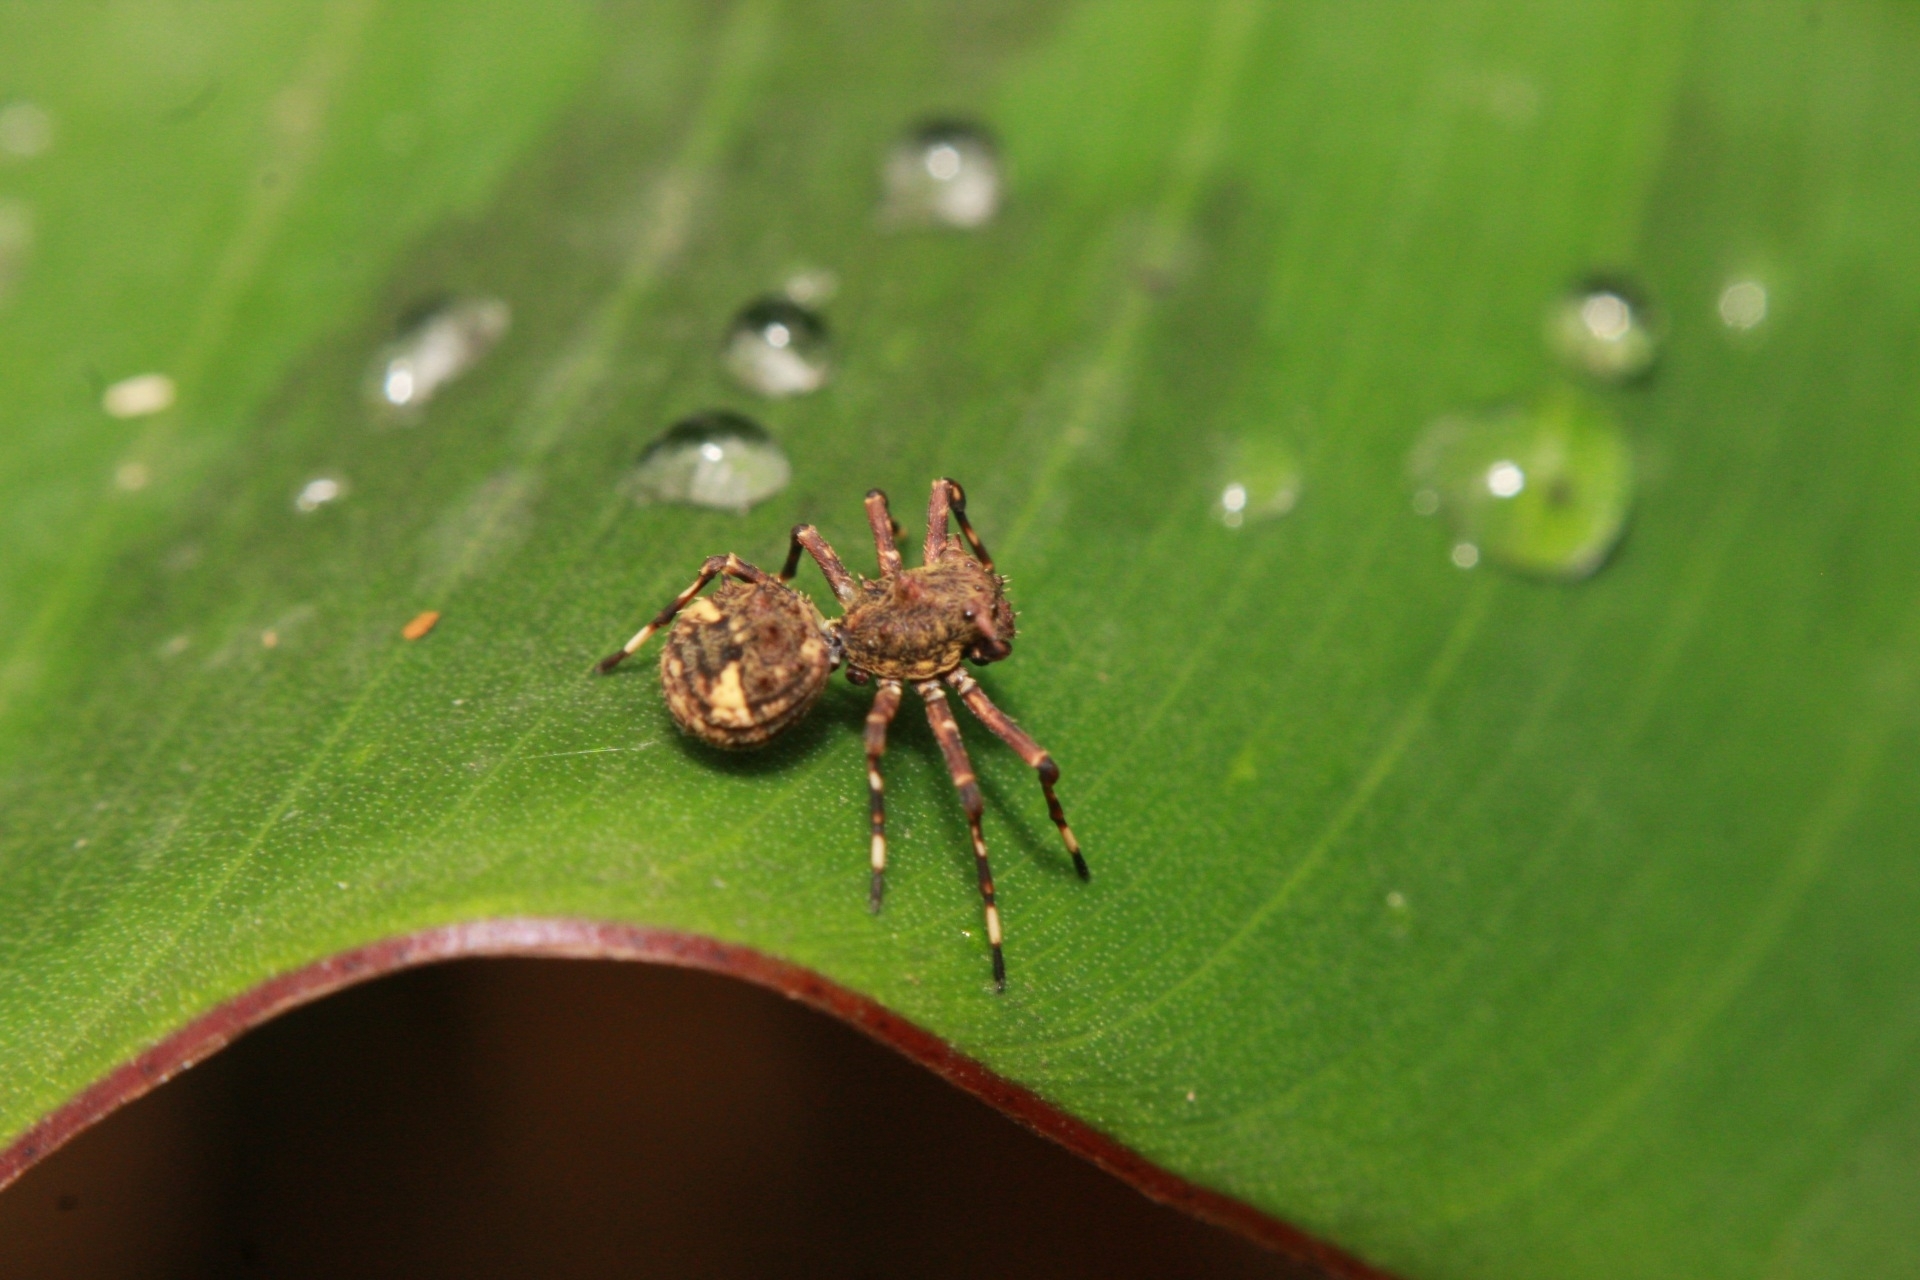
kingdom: Animalia
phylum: Arthropoda
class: Arachnida
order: Araneae
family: Thomisidae
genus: Bucranium
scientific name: Bucranium taurifrons
